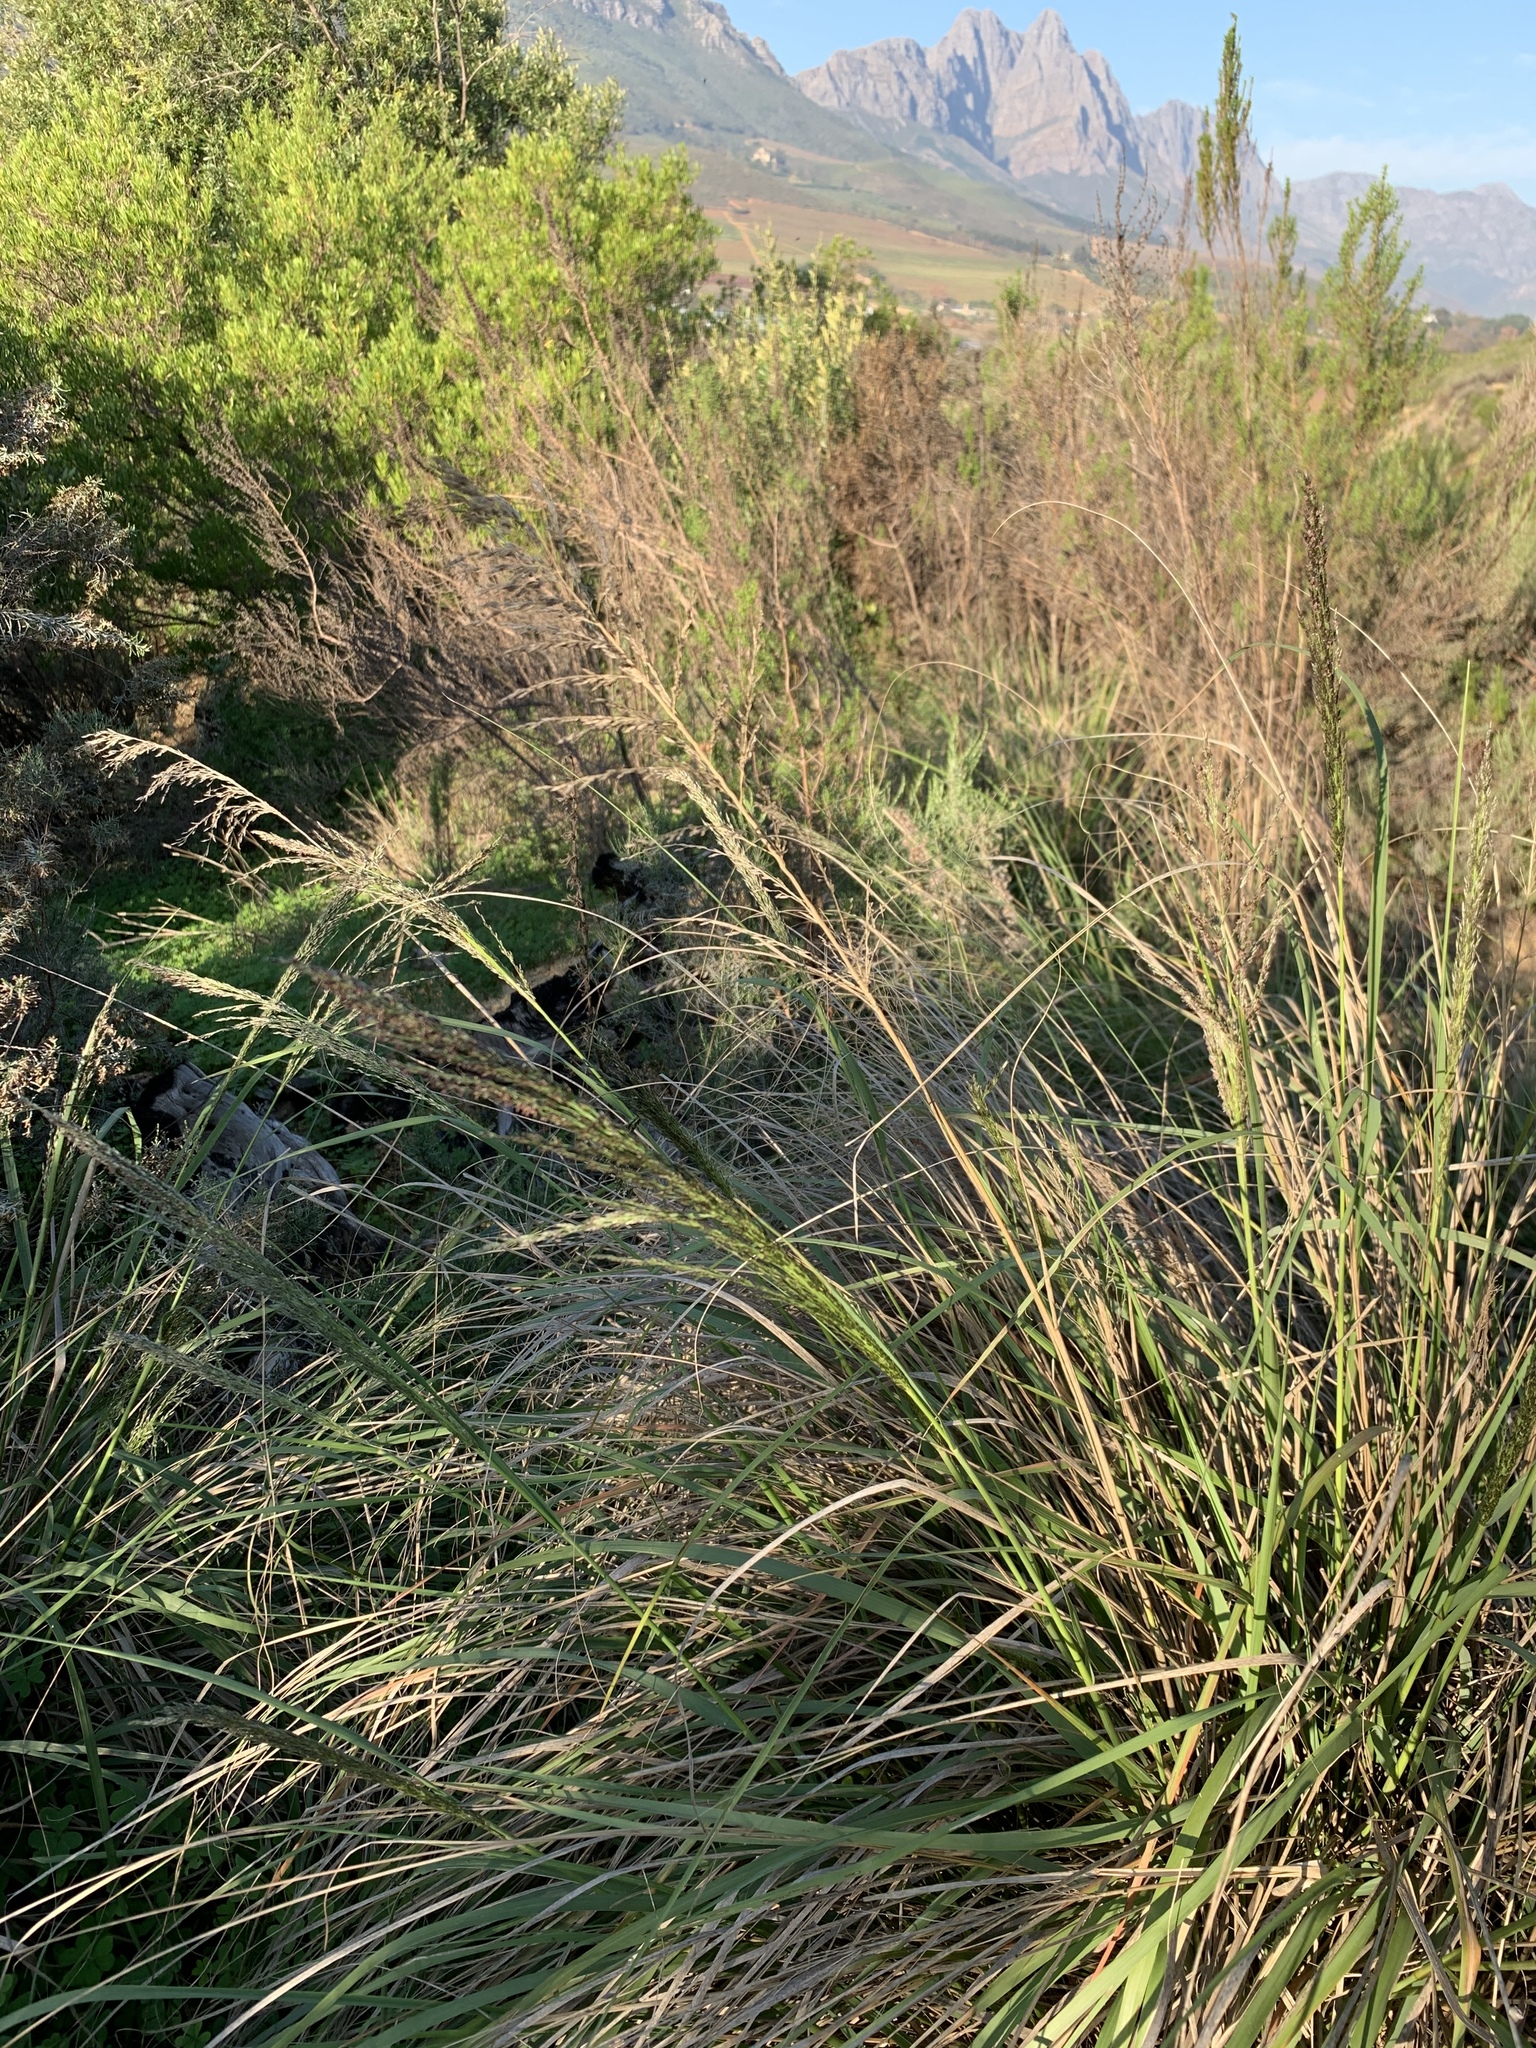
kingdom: Plantae
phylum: Tracheophyta
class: Liliopsida
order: Poales
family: Poaceae
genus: Eragrostis
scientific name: Eragrostis curvula
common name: African love-grass
